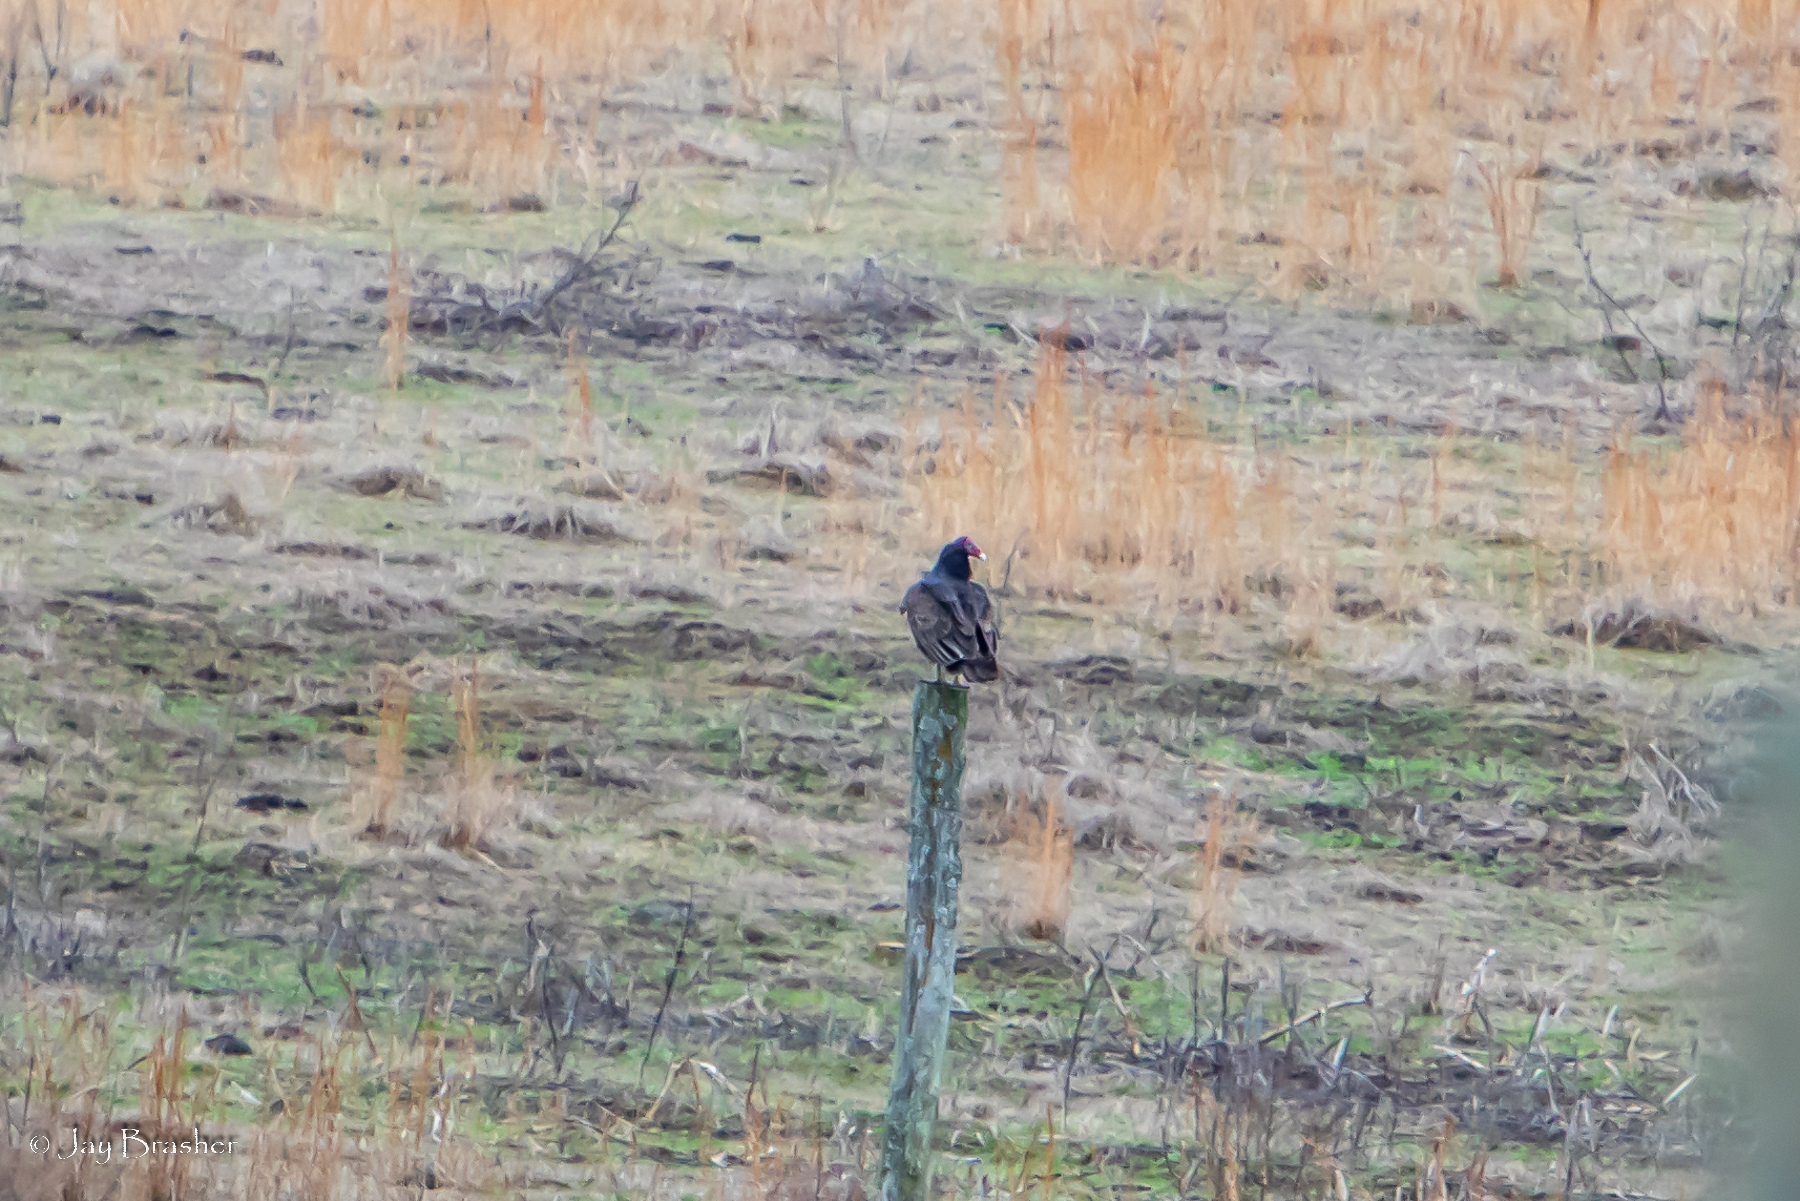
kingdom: Animalia
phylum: Chordata
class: Aves
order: Accipitriformes
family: Cathartidae
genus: Cathartes
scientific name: Cathartes aura
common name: Turkey vulture
